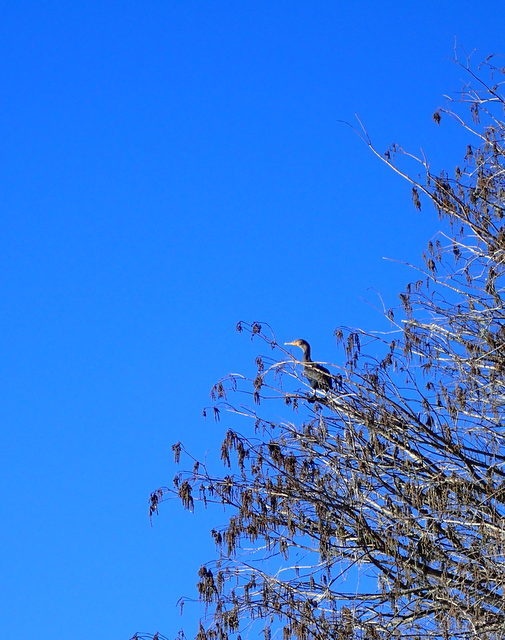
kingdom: Animalia
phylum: Chordata
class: Aves
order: Suliformes
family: Phalacrocoracidae
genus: Phalacrocorax
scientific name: Phalacrocorax auritus
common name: Double-crested cormorant
